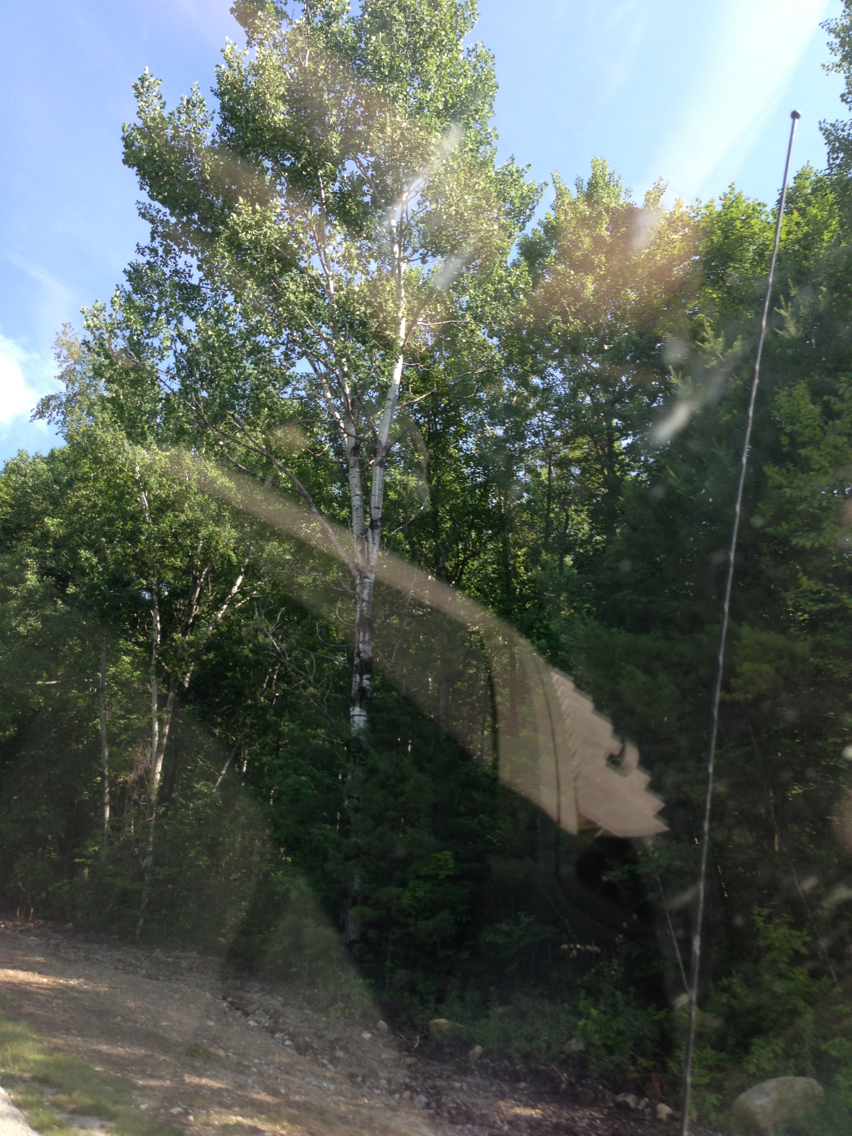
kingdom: Plantae
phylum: Tracheophyta
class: Magnoliopsida
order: Malpighiales
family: Salicaceae
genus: Populus
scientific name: Populus tremuloides
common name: Quaking aspen
